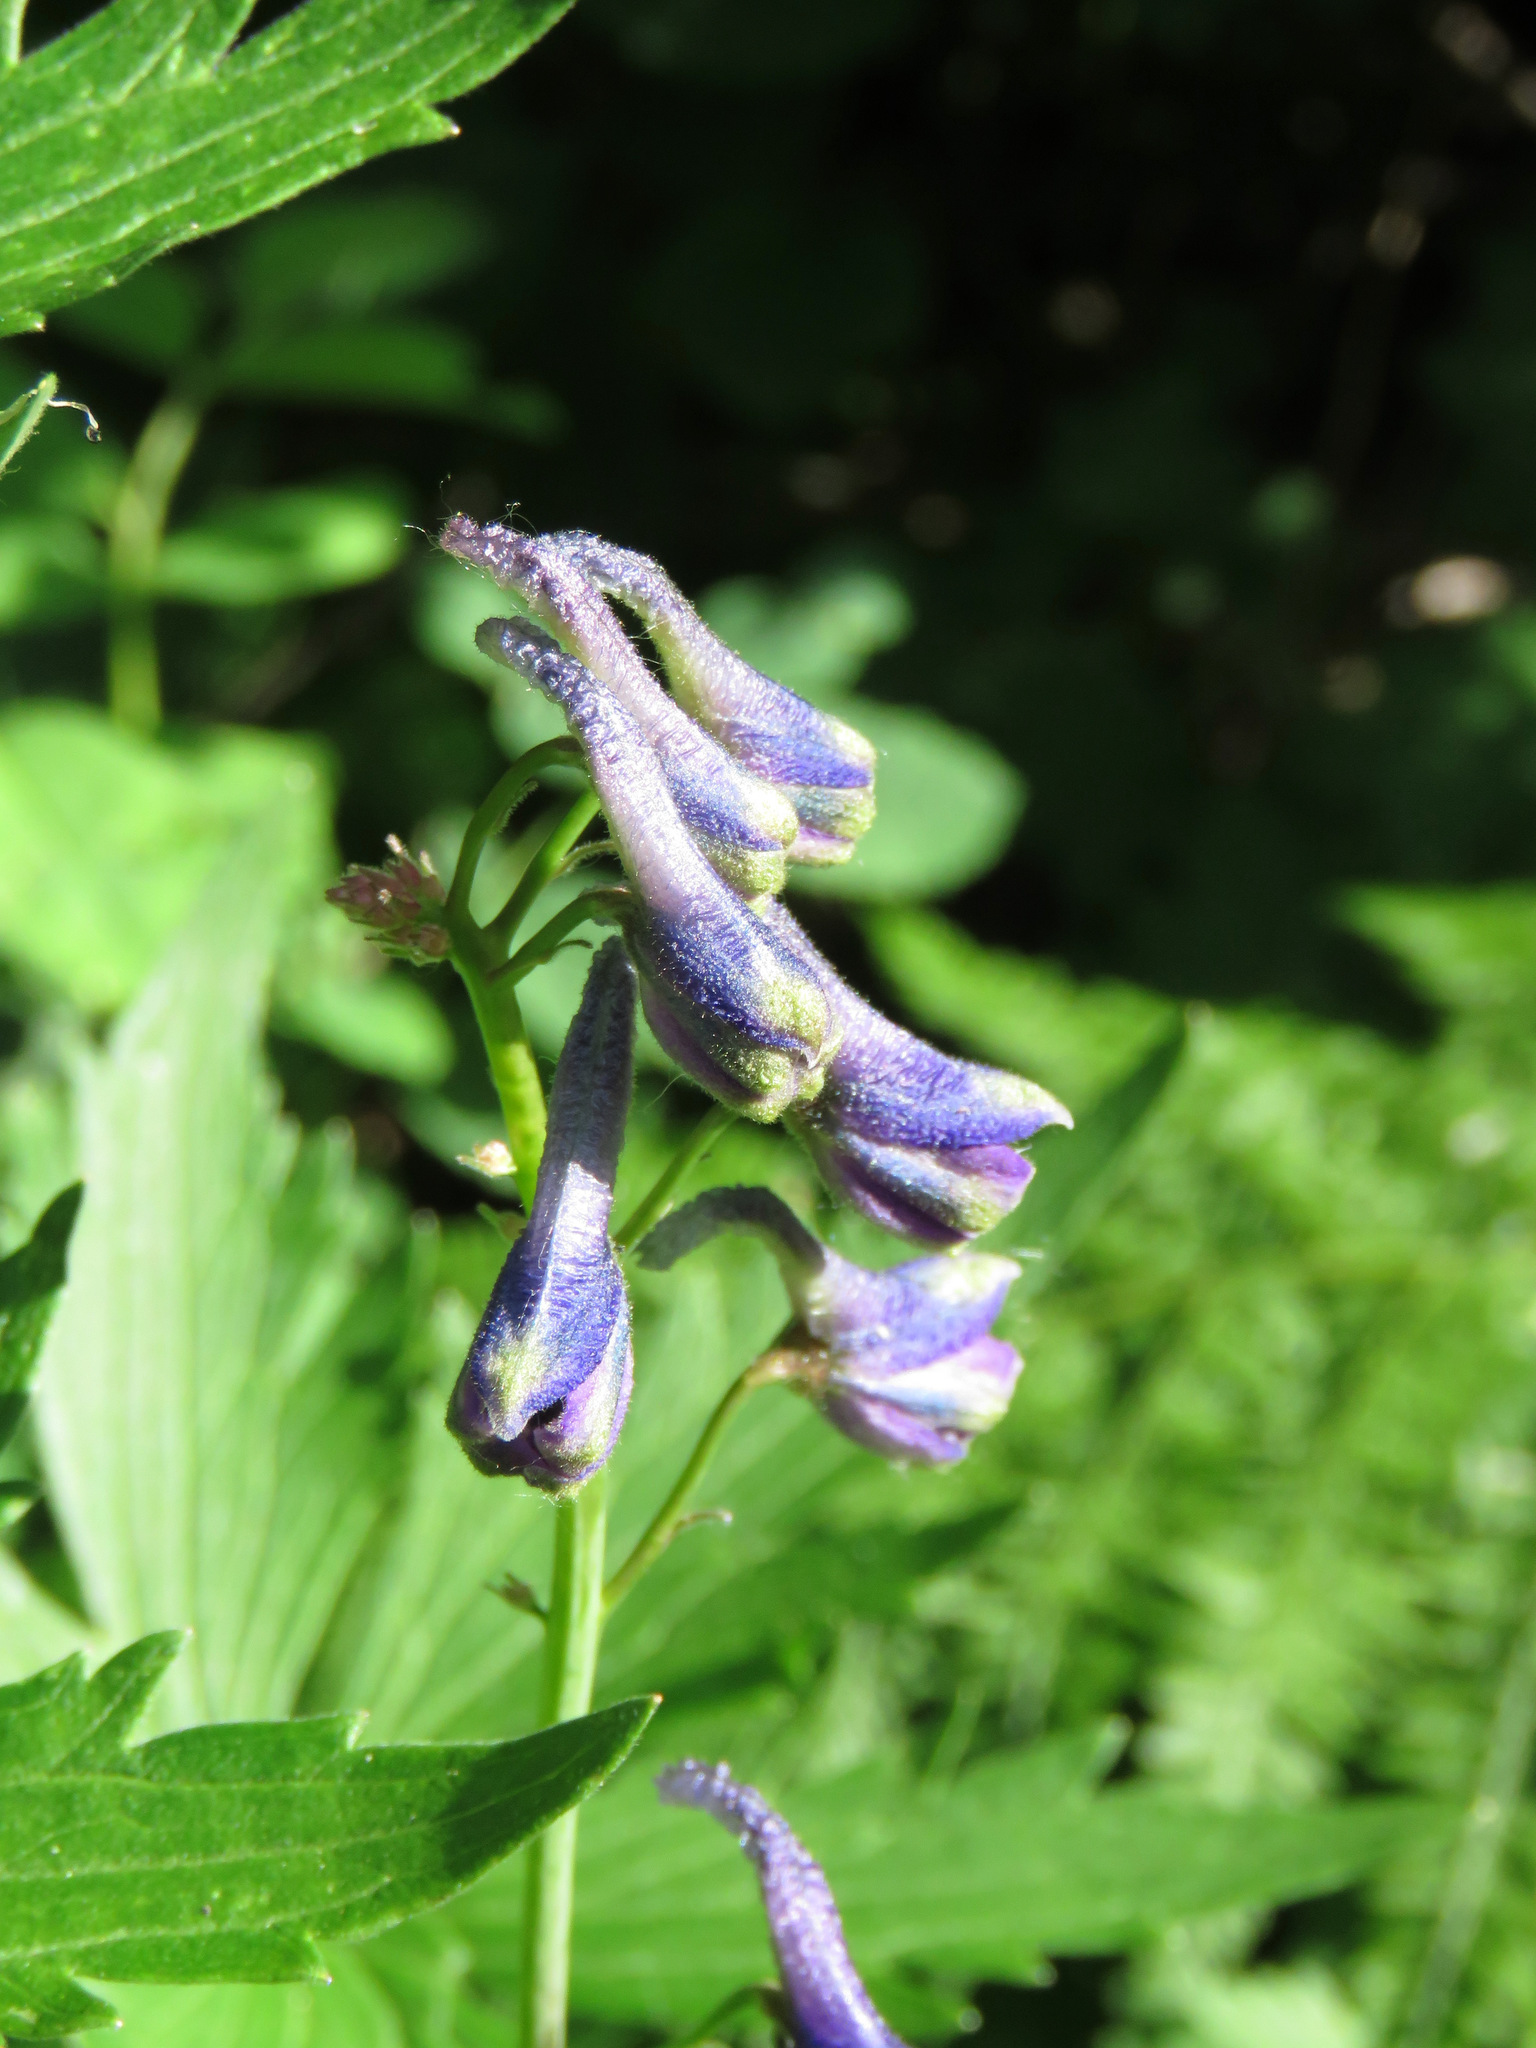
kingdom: Plantae
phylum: Tracheophyta
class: Magnoliopsida
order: Ranunculales
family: Ranunculaceae
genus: Delphinium
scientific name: Delphinium glaucum
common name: Brown's larkspur
